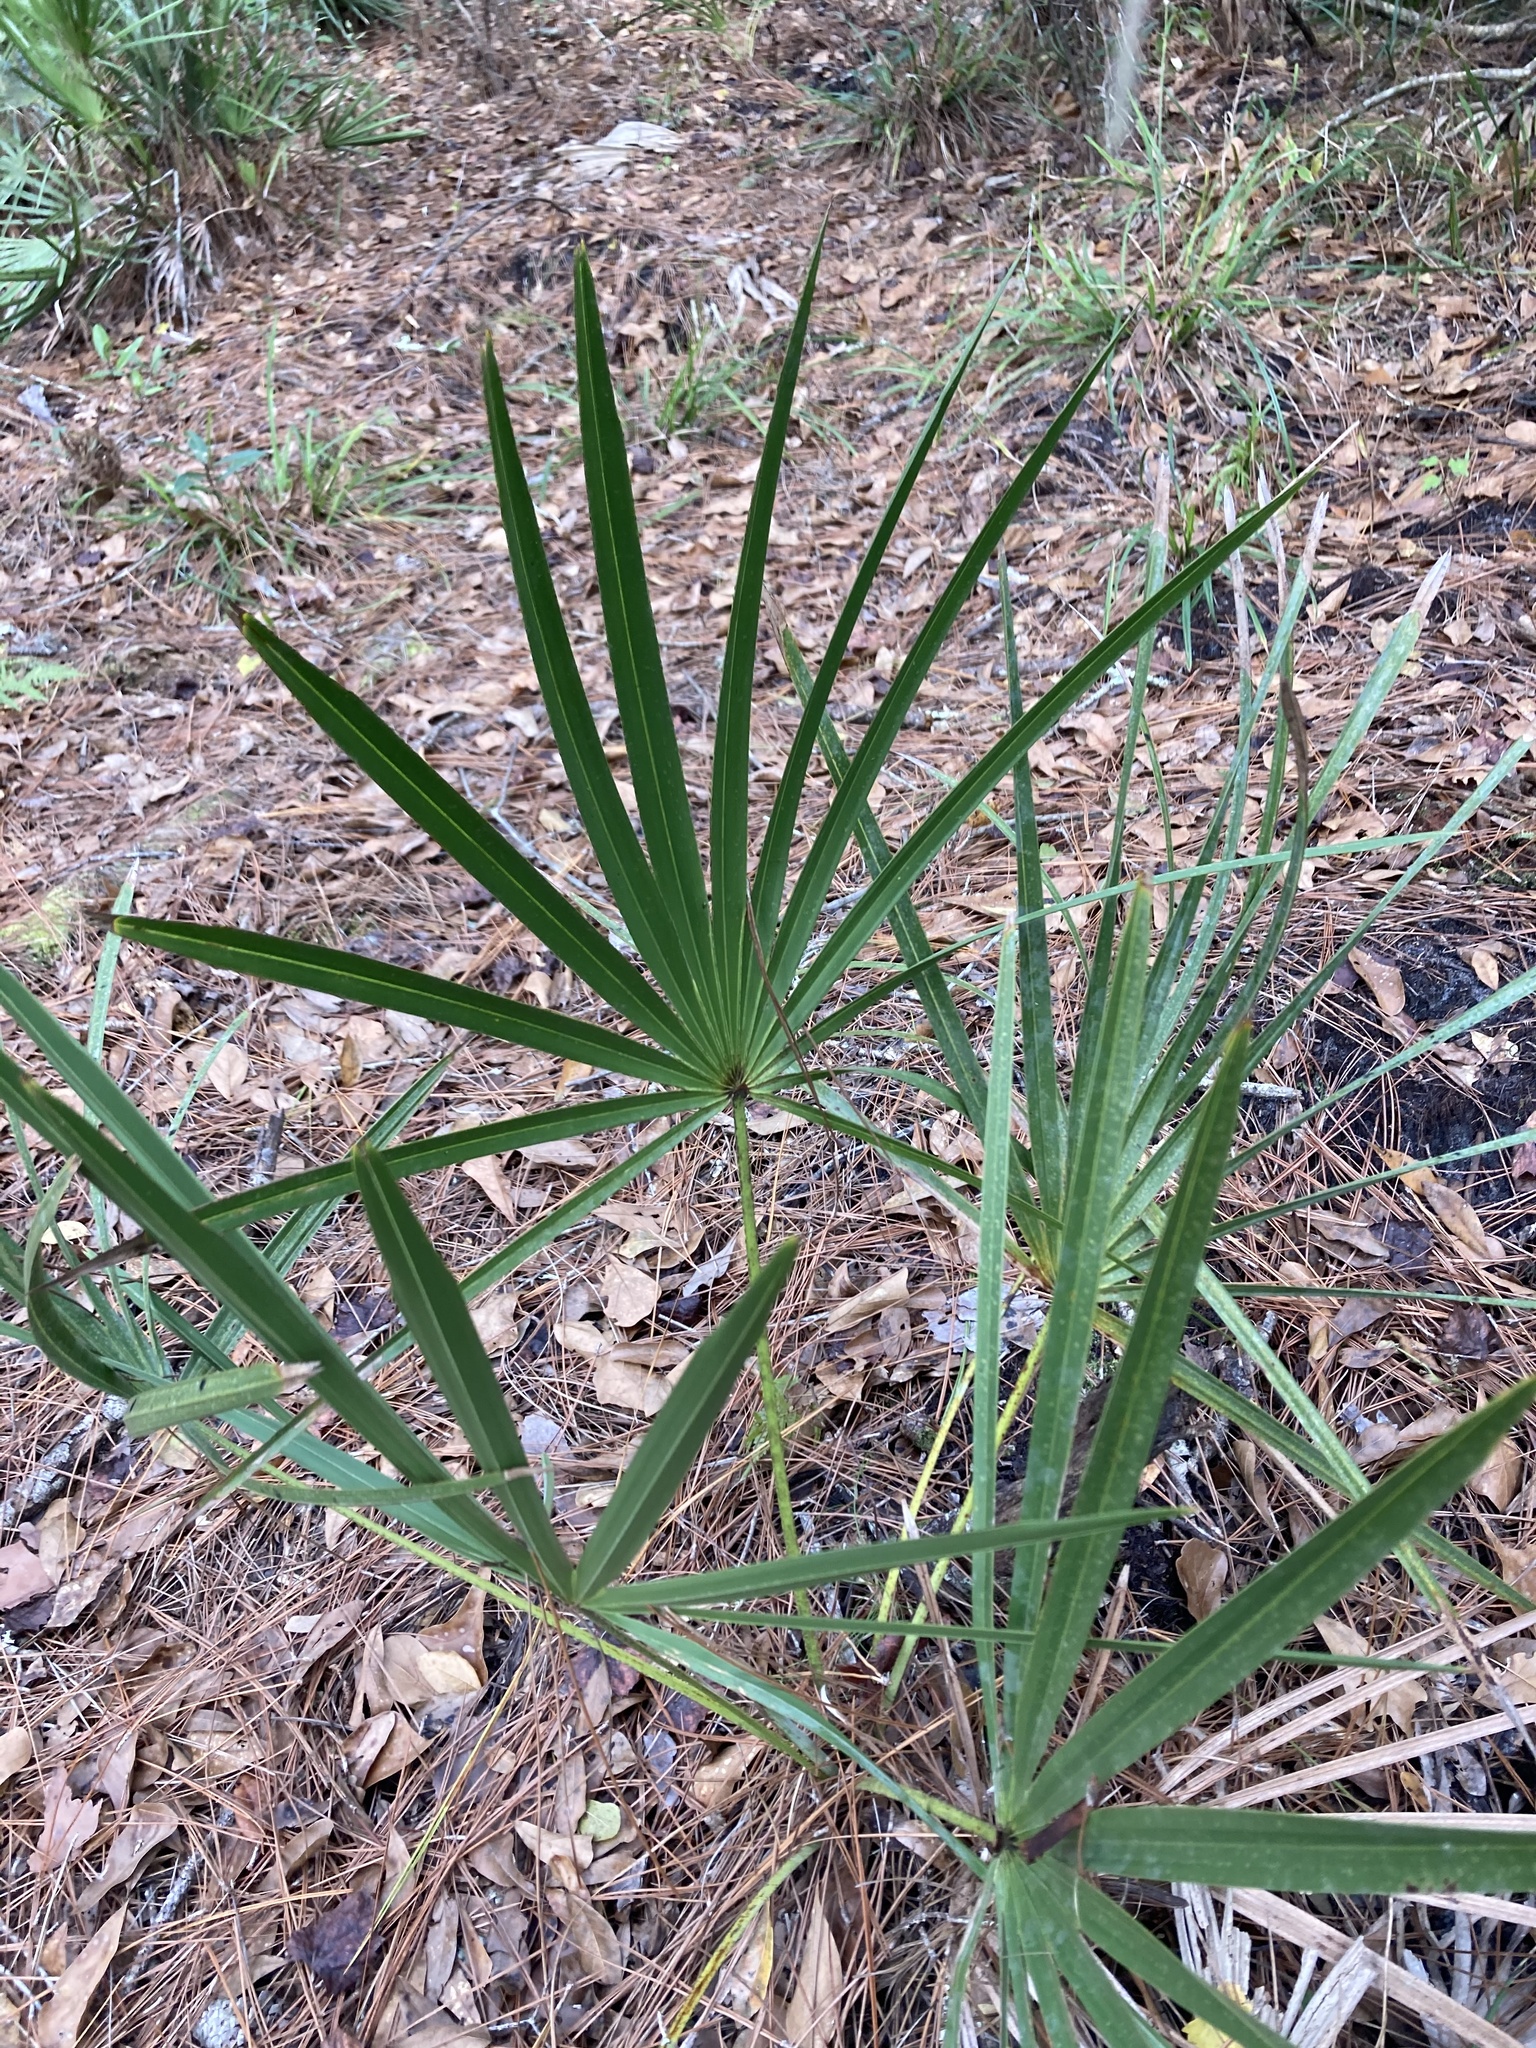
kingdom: Plantae
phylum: Tracheophyta
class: Liliopsida
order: Arecales
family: Arecaceae
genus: Serenoa
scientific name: Serenoa repens
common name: Saw-palmetto
